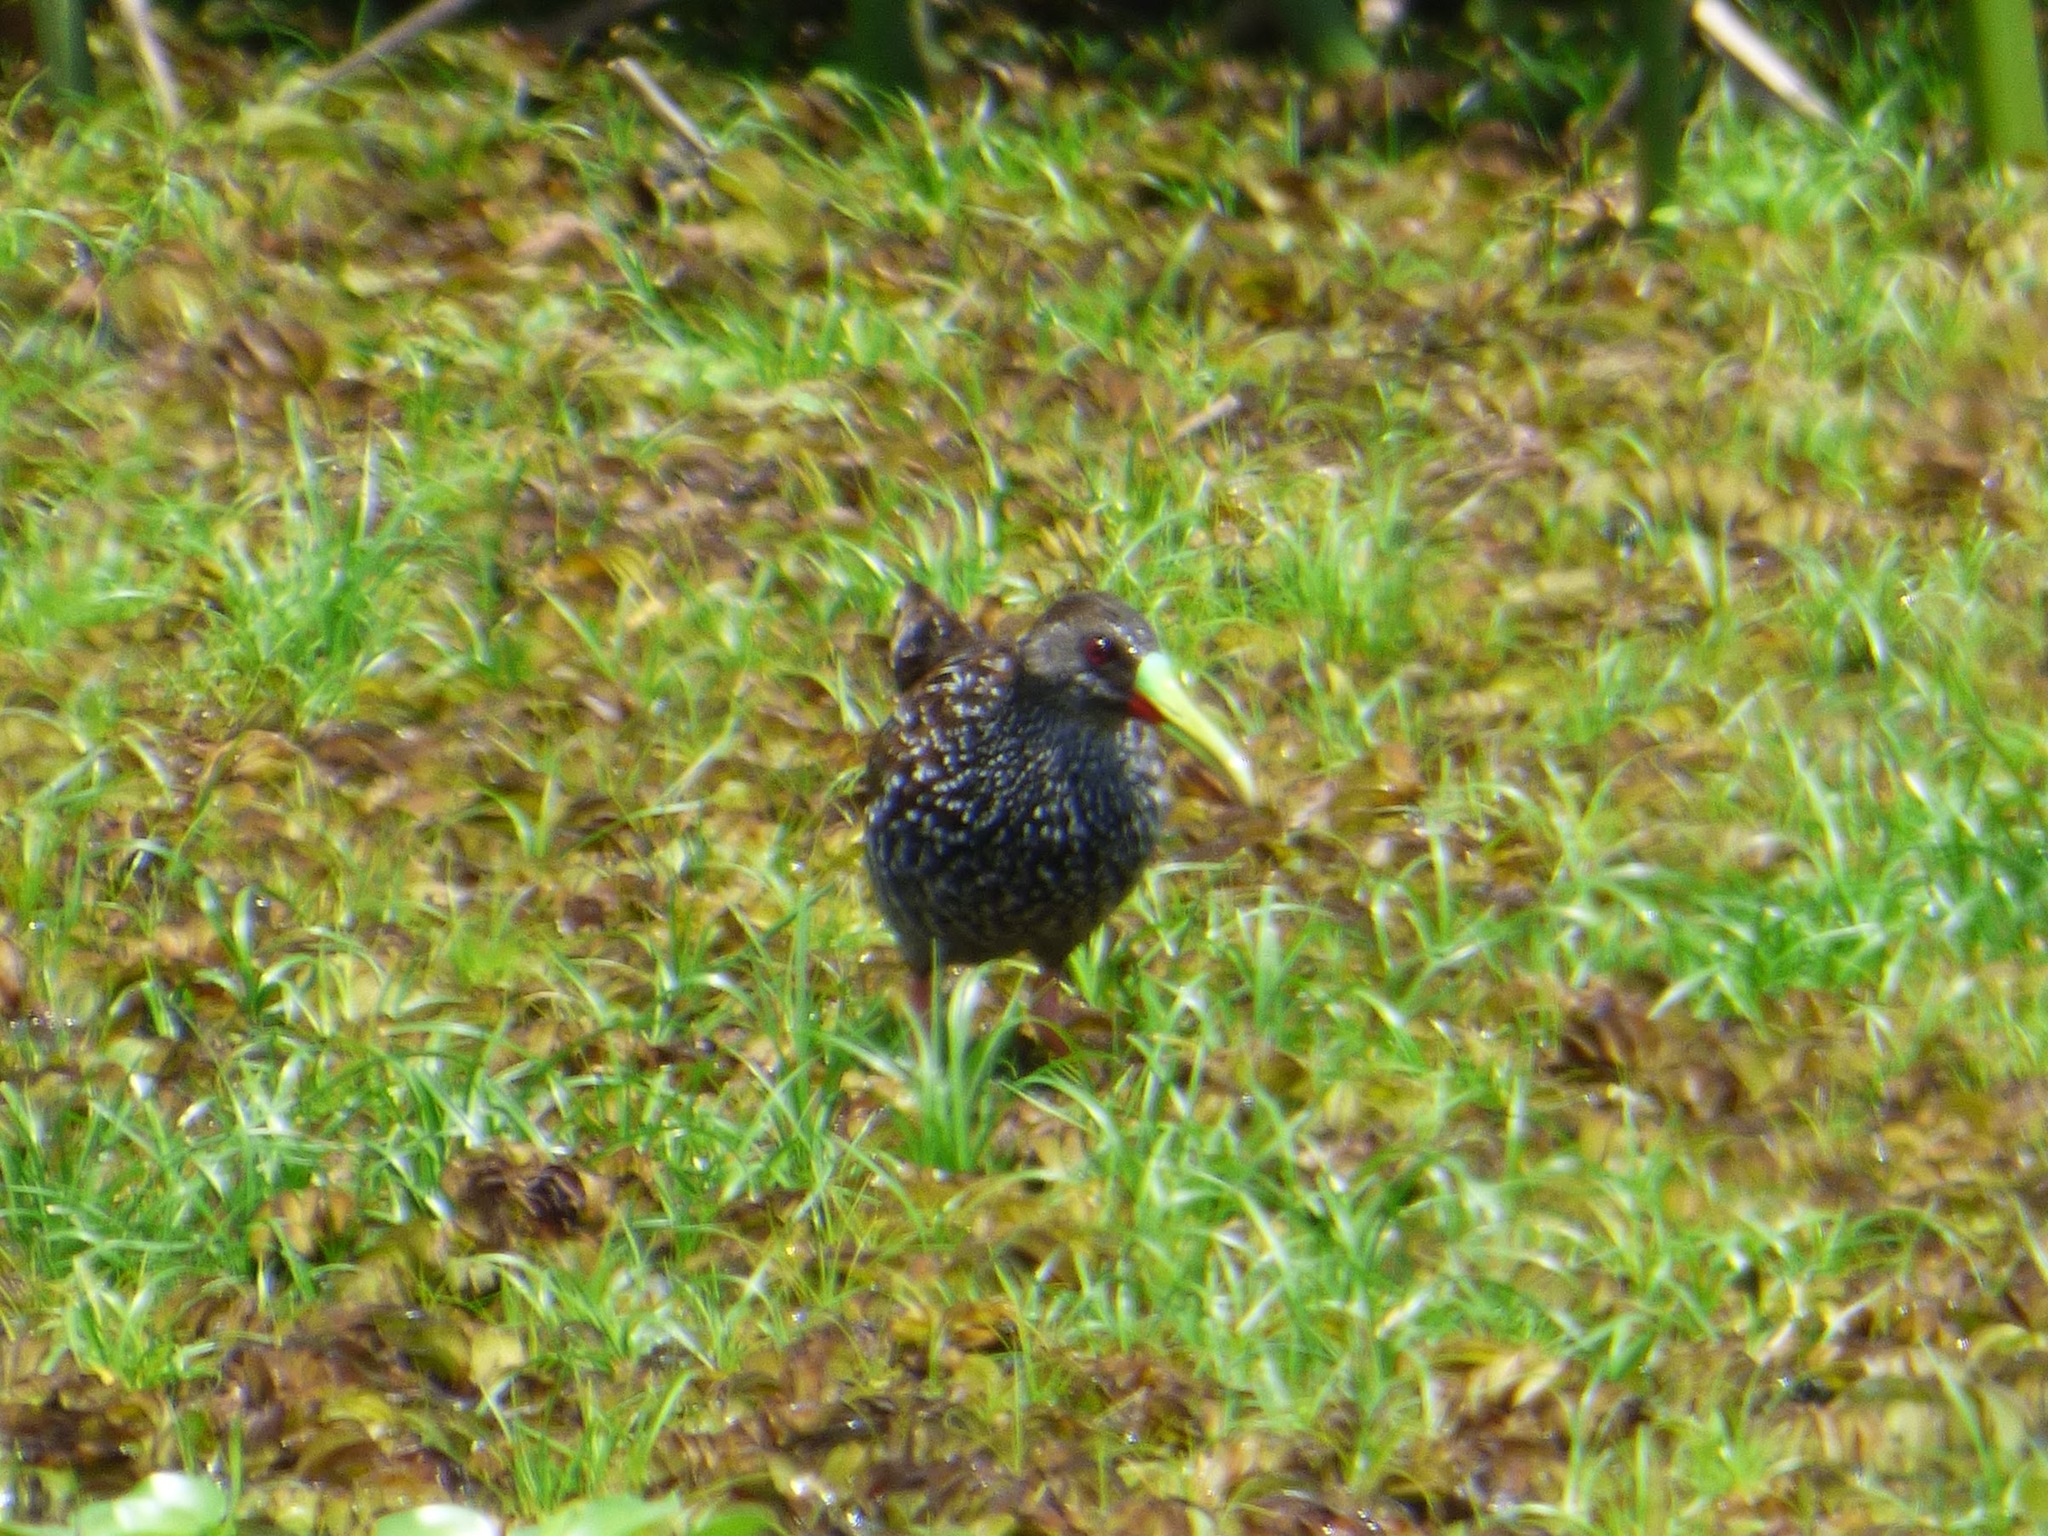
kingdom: Animalia
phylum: Chordata
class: Aves
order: Gruiformes
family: Rallidae
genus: Pardirallus
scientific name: Pardirallus maculatus
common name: Spotted rail
